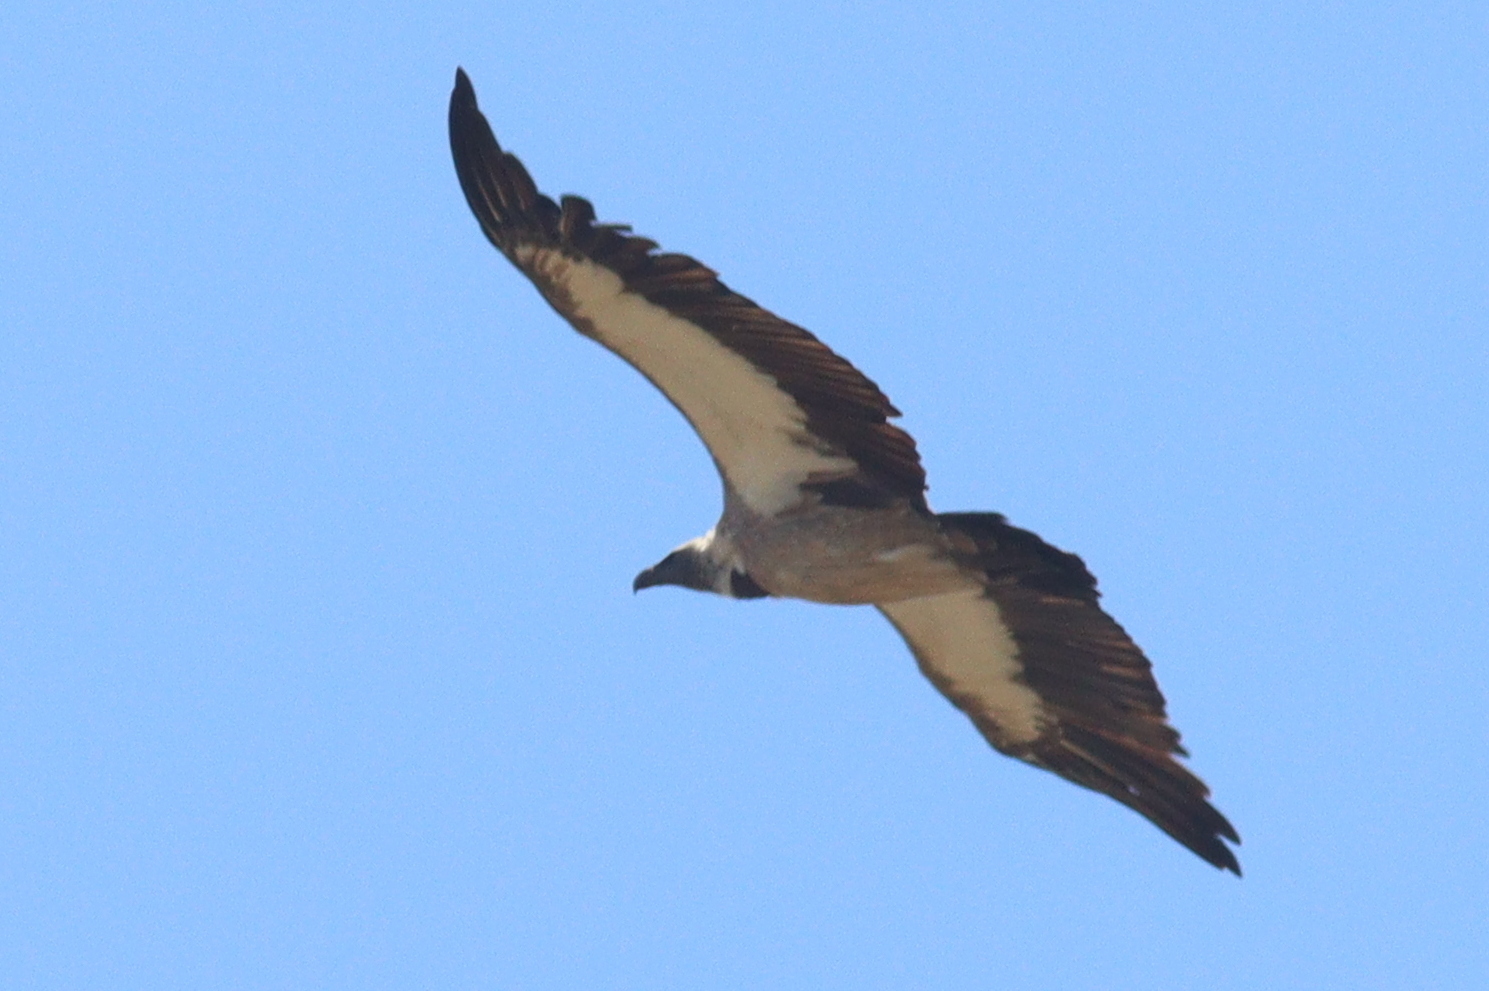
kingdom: Animalia
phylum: Chordata
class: Aves
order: Accipitriformes
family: Accipitridae
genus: Gyps
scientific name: Gyps africanus
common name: White-backed vulture
